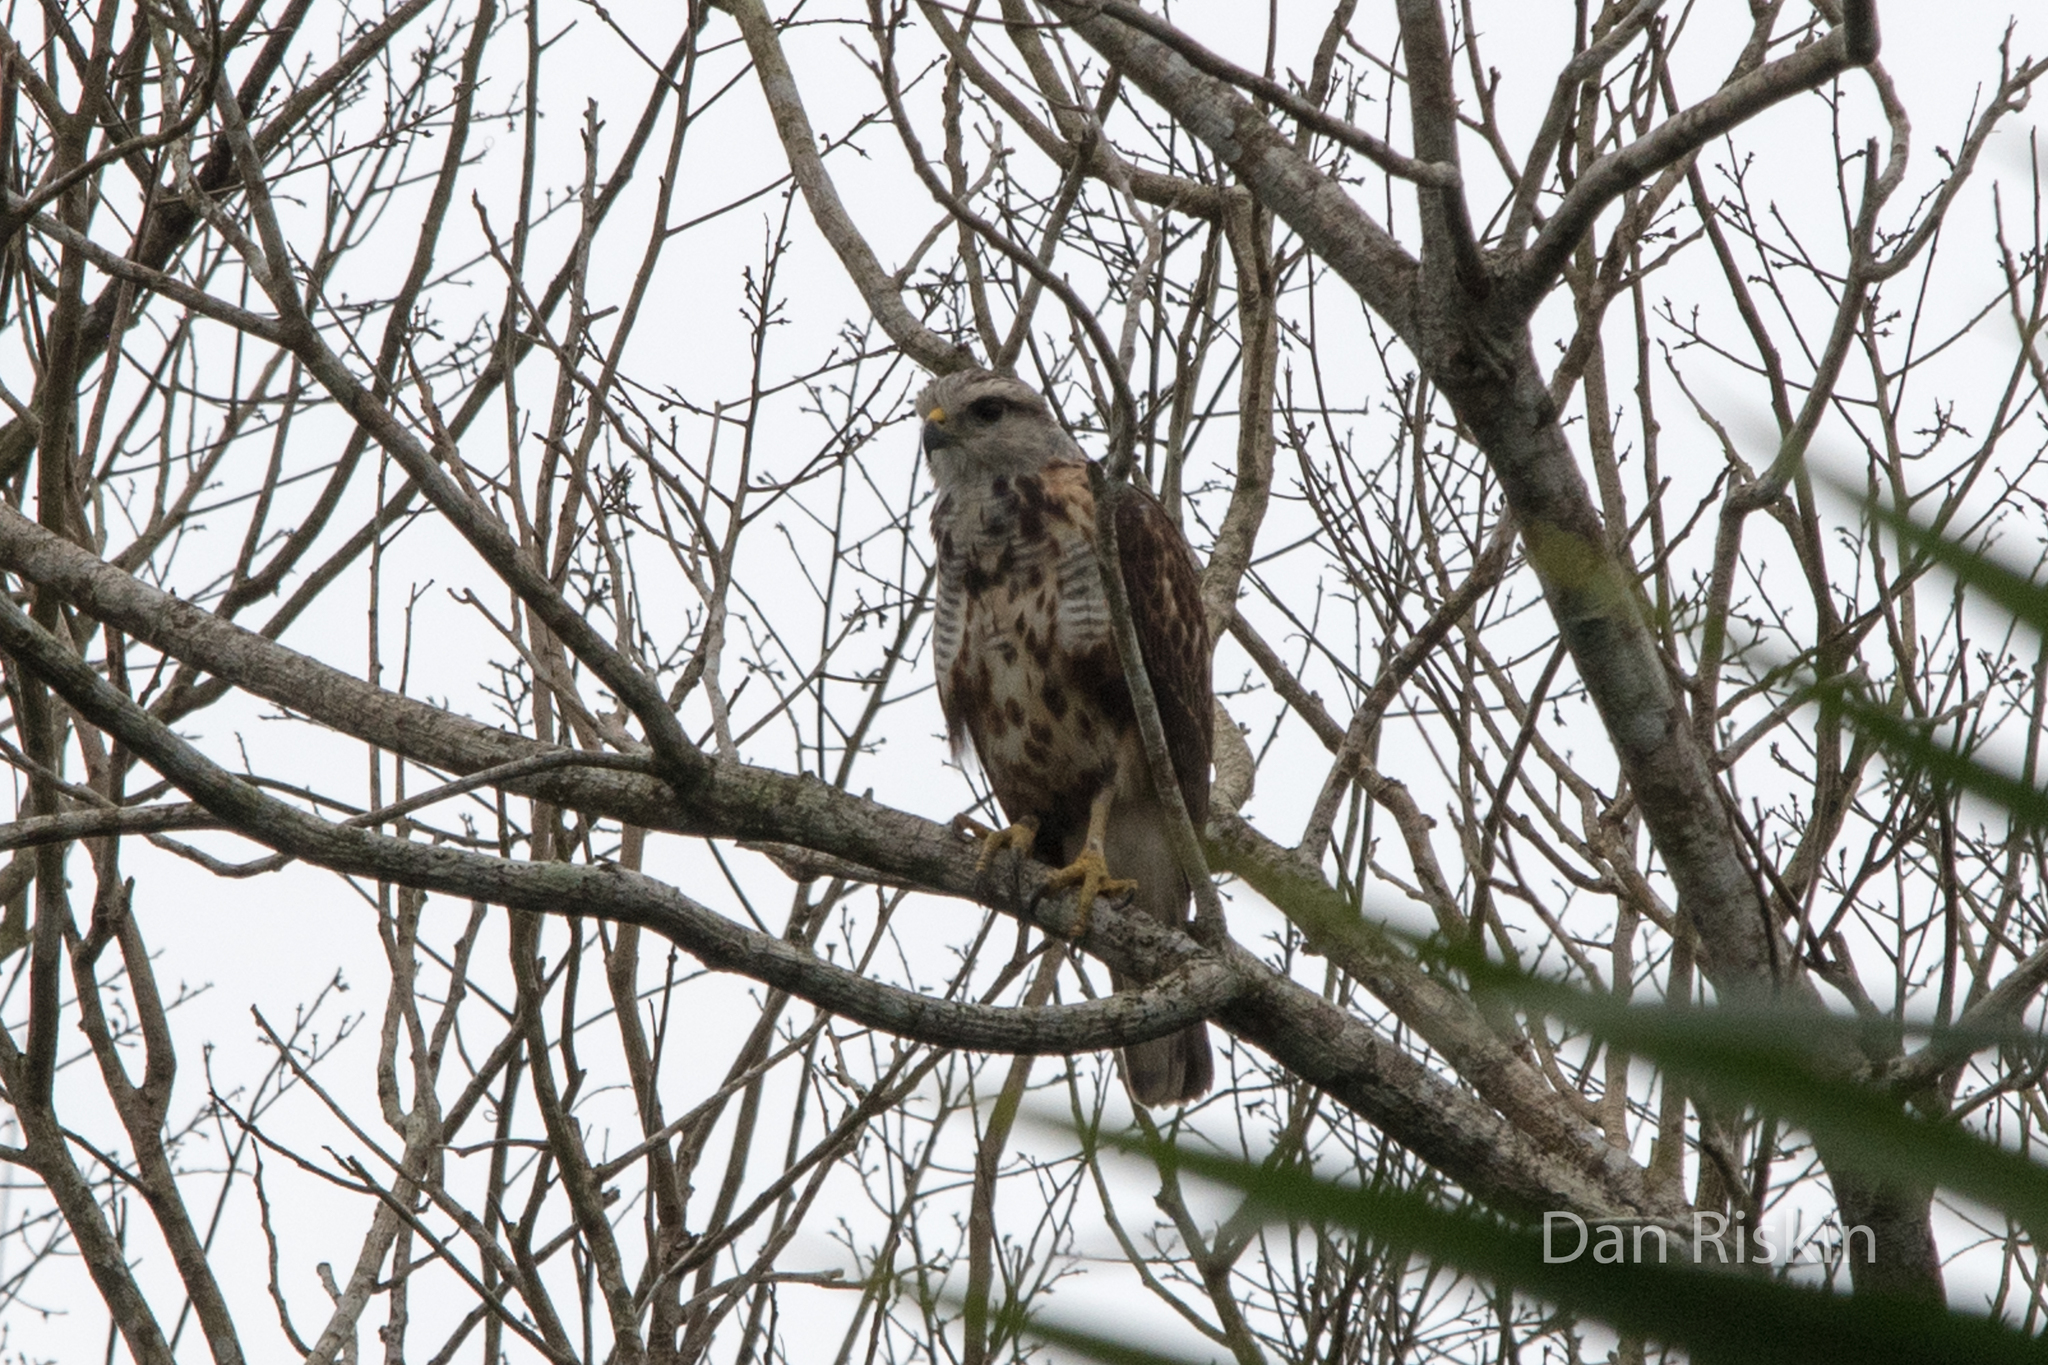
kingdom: Animalia
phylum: Chordata
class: Aves
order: Accipitriformes
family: Accipitridae
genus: Buteo
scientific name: Buteo nitidus
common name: Grey-lined hawk
